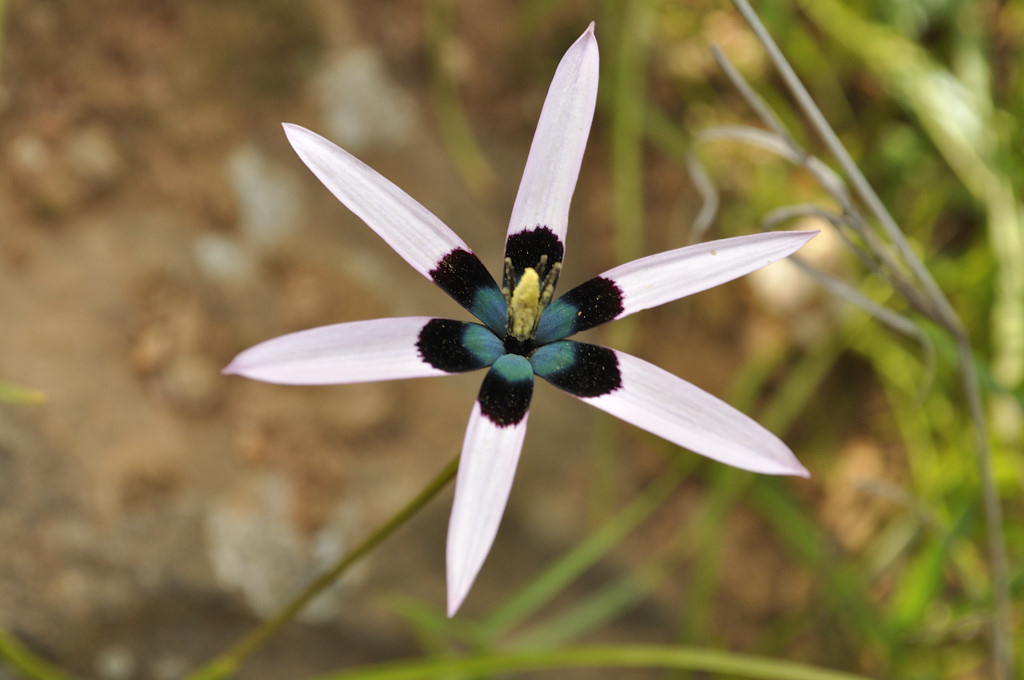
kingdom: Plantae
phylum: Tracheophyta
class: Liliopsida
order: Asparagales
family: Hypoxidaceae
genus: Pauridia
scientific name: Pauridia capensis
